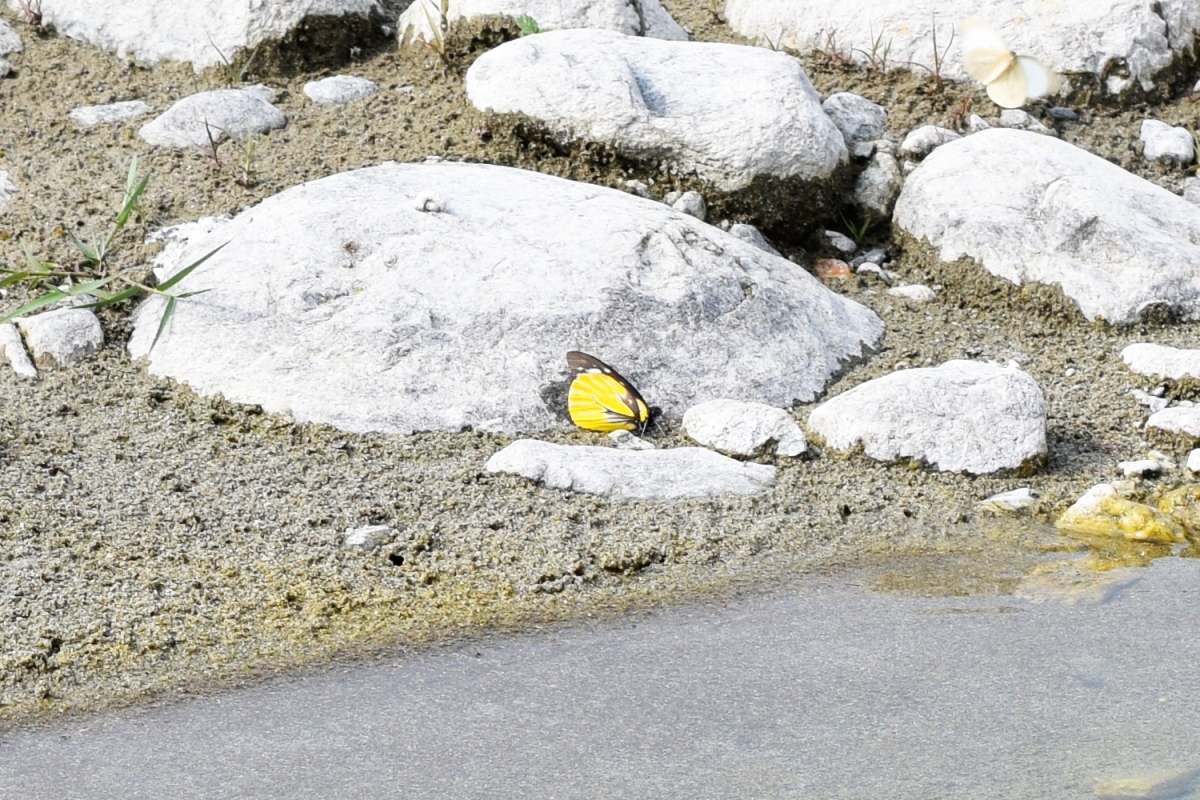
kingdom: Animalia
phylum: Arthropoda
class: Insecta
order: Lepidoptera
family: Pieridae
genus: Prioneris
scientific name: Prioneris thestylis
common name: Spotted sawtooth
